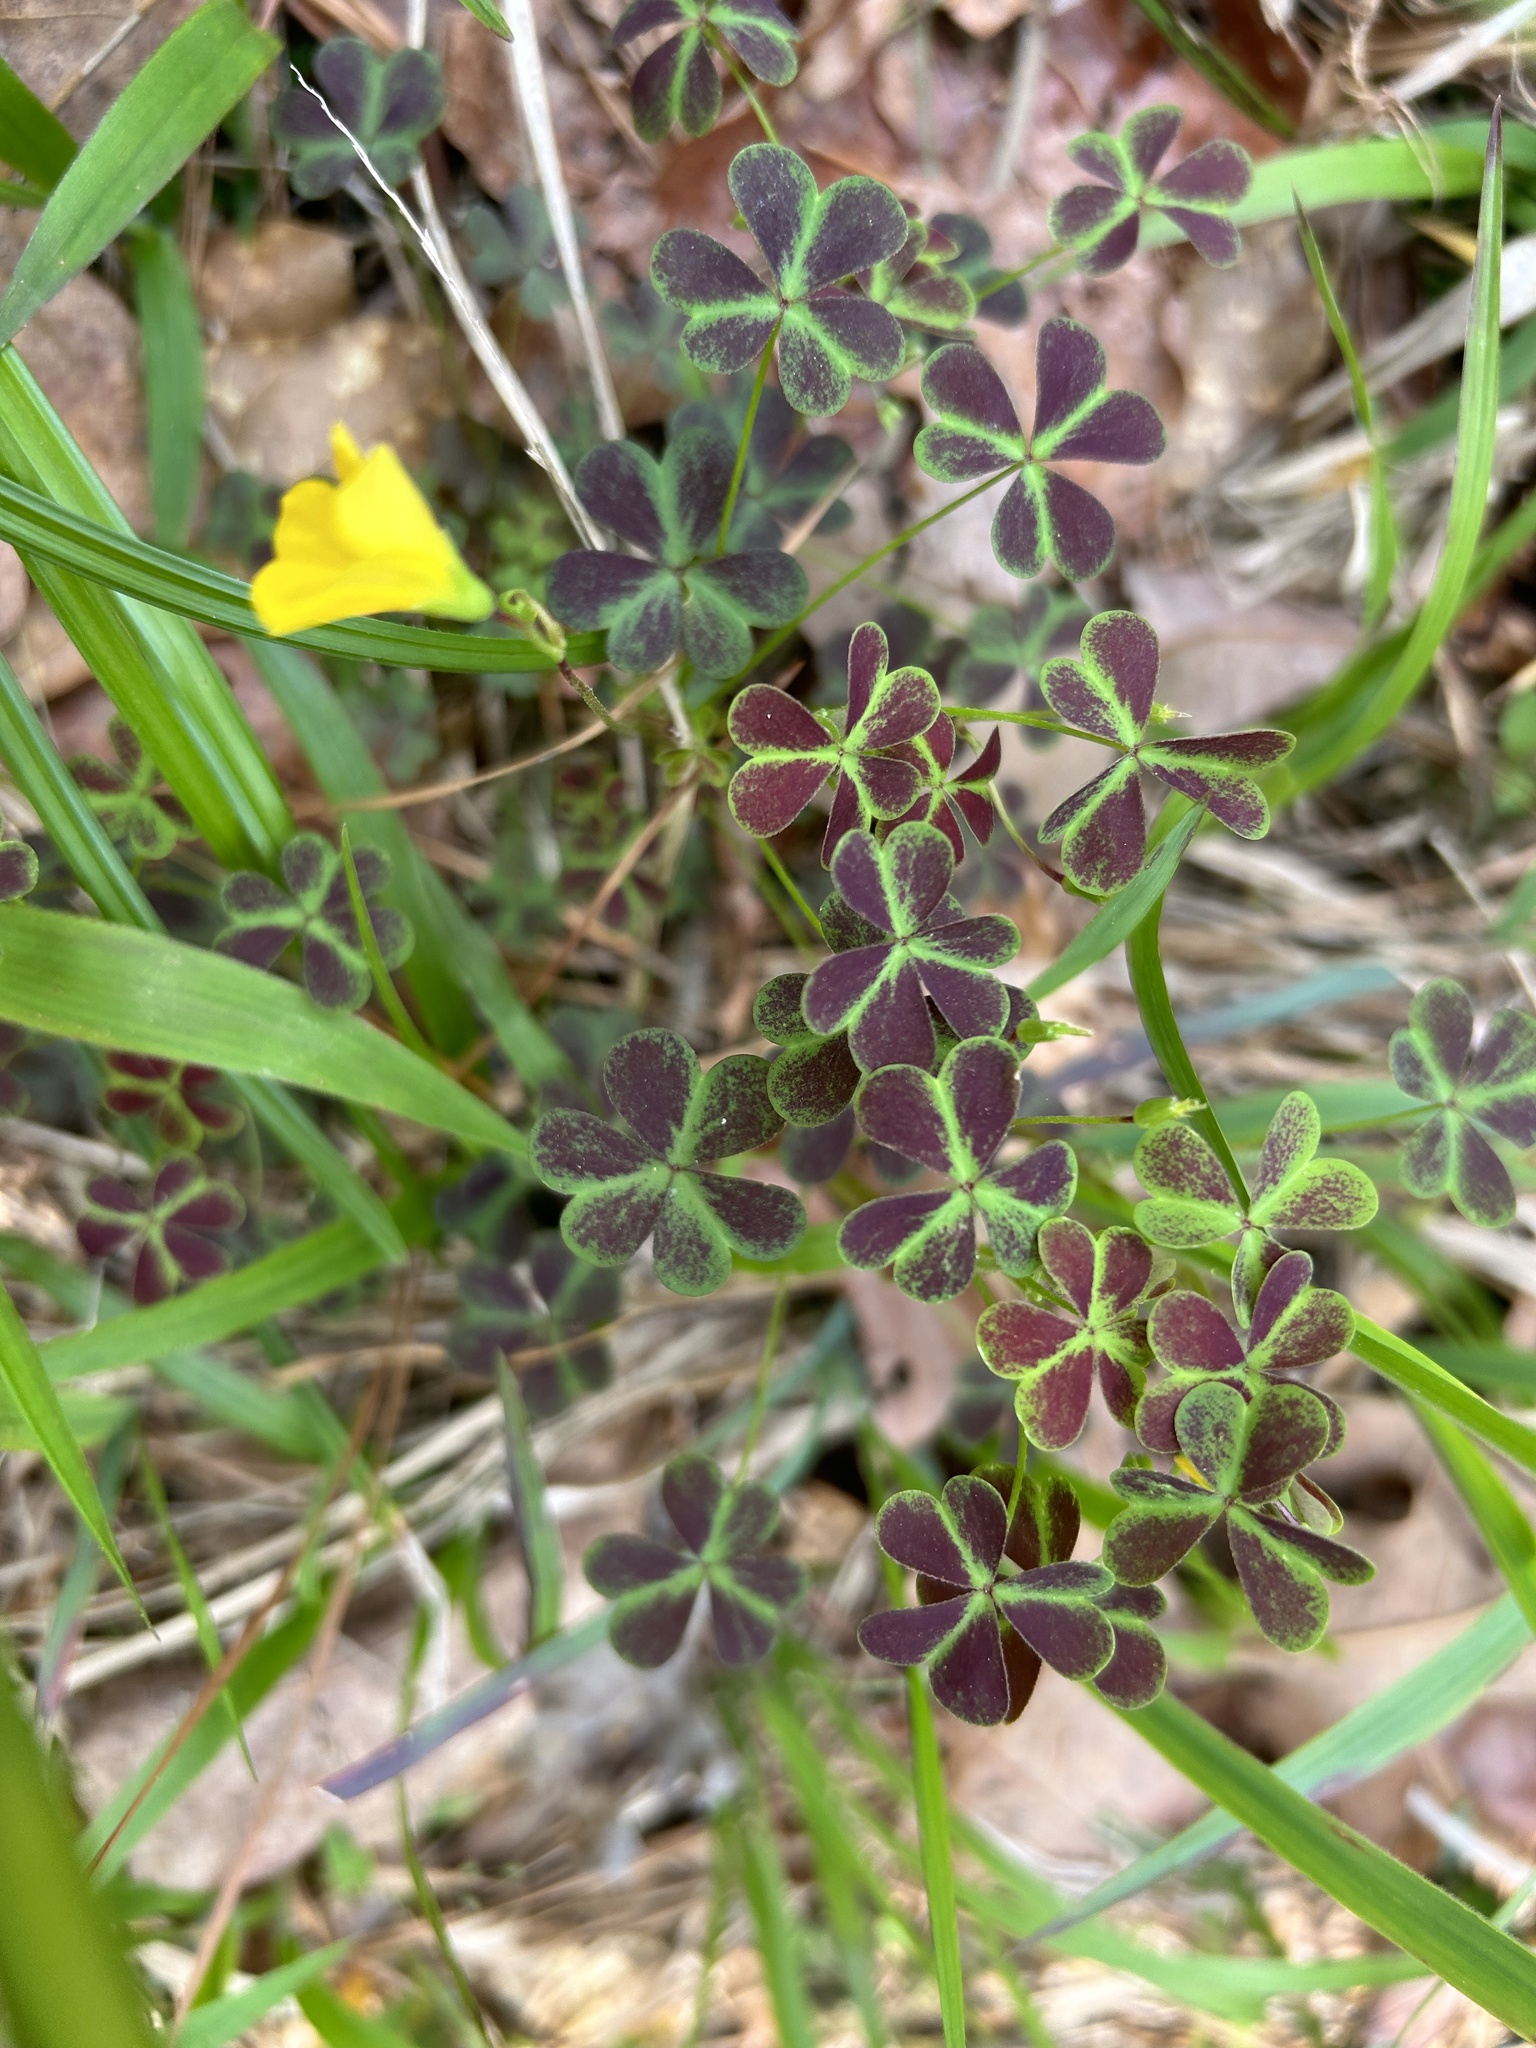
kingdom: Plantae
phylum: Tracheophyta
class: Magnoliopsida
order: Oxalidales
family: Oxalidaceae
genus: Oxalis
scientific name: Oxalis colorea
